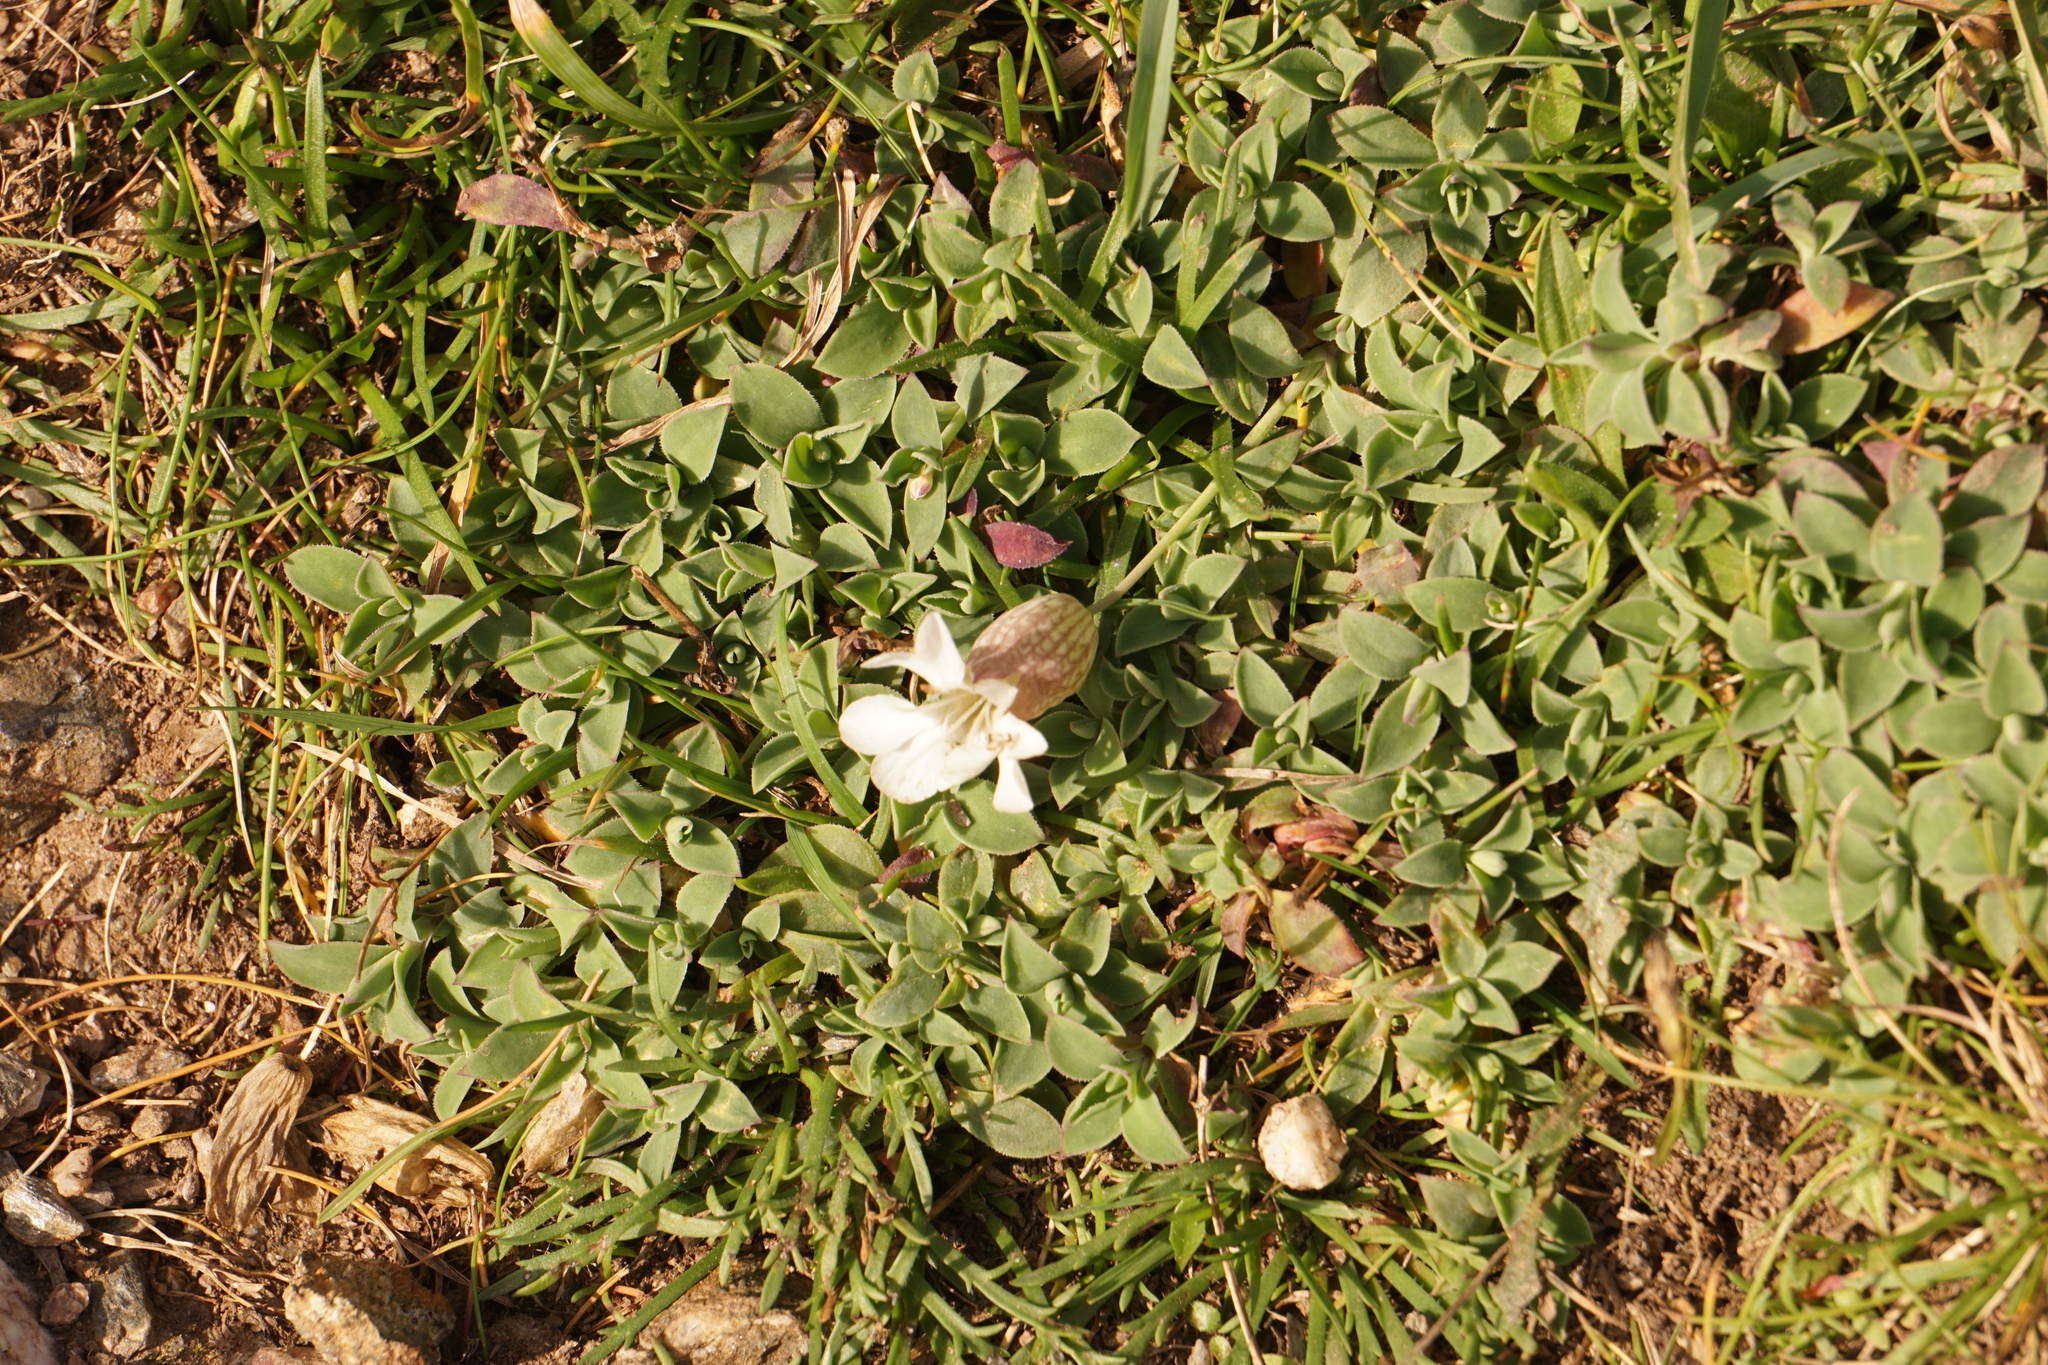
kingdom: Plantae
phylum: Tracheophyta
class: Magnoliopsida
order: Caryophyllales
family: Caryophyllaceae
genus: Silene
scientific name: Silene uniflora
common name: Sea campion
